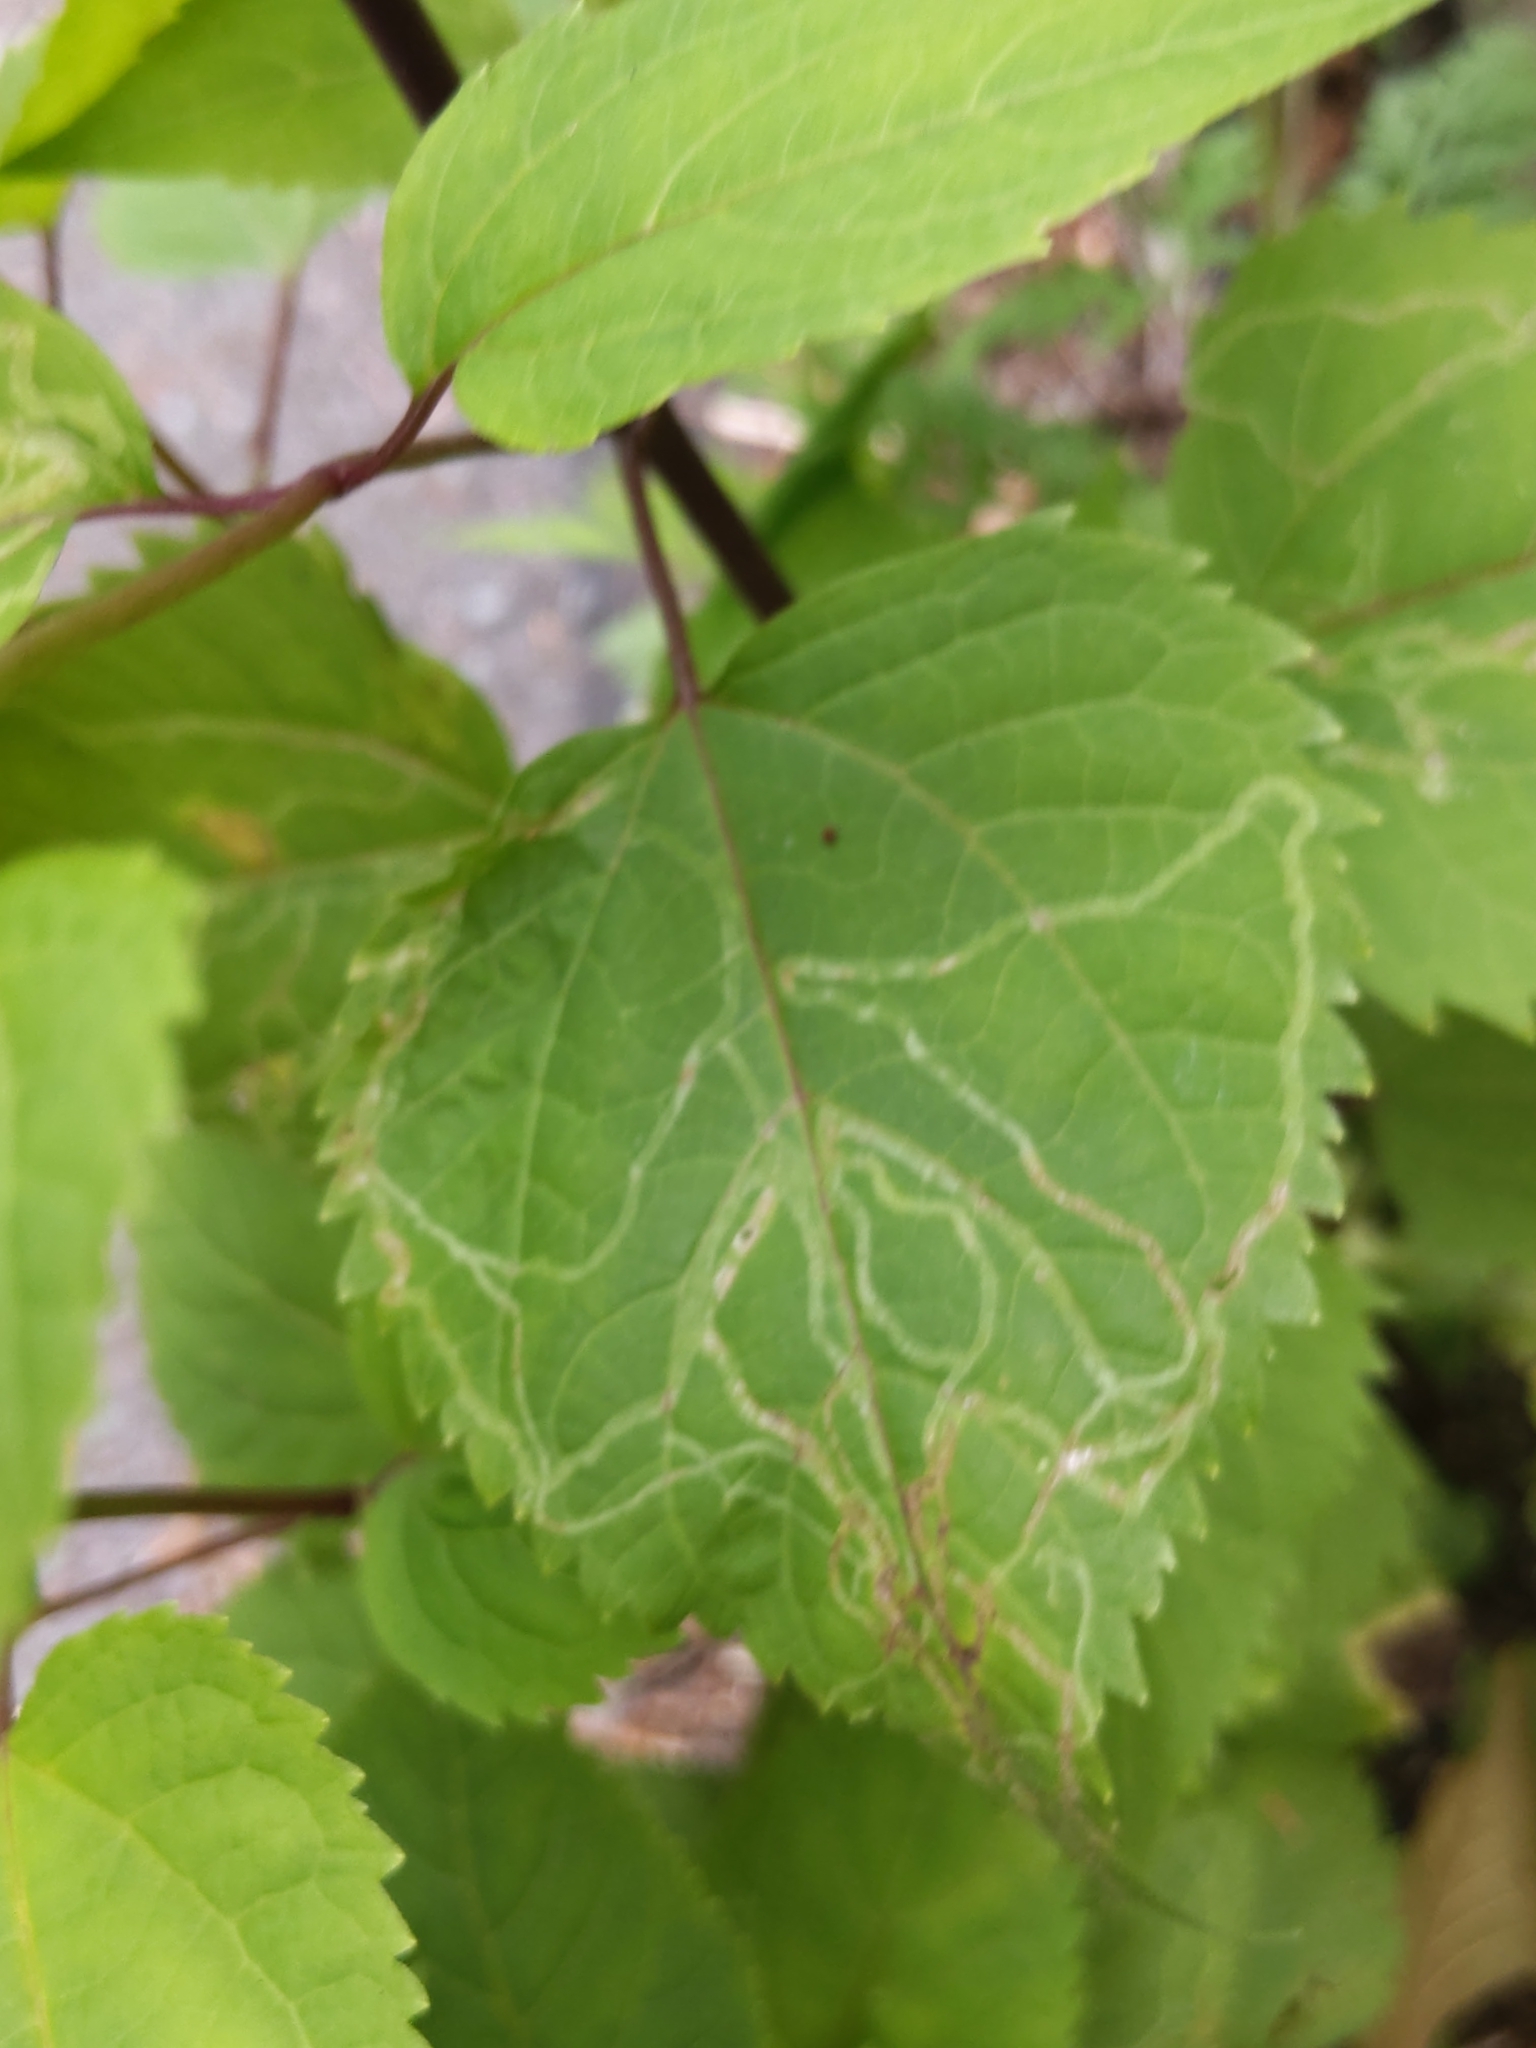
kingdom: Animalia
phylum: Arthropoda
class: Insecta
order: Diptera
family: Agromyzidae
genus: Liriomyza
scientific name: Liriomyza
